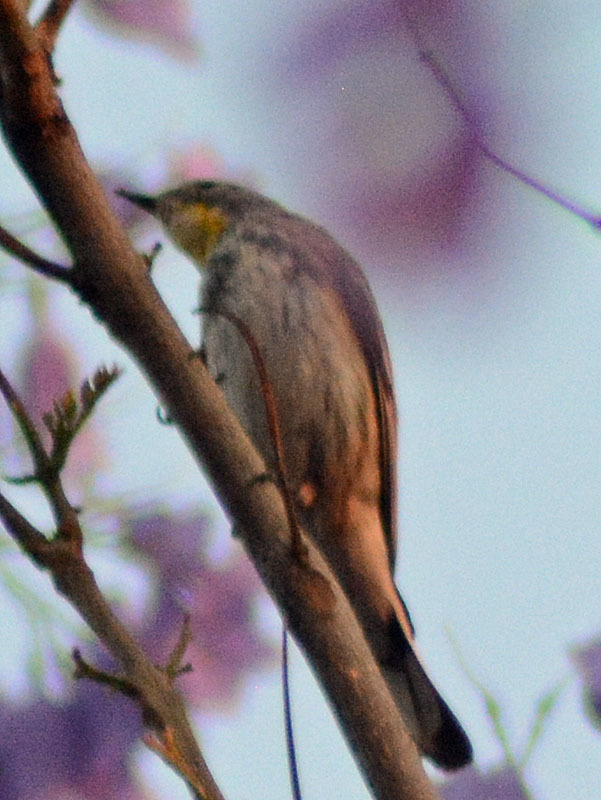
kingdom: Animalia
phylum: Chordata
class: Aves
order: Passeriformes
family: Parulidae
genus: Setophaga
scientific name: Setophaga coronata
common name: Myrtle warbler
